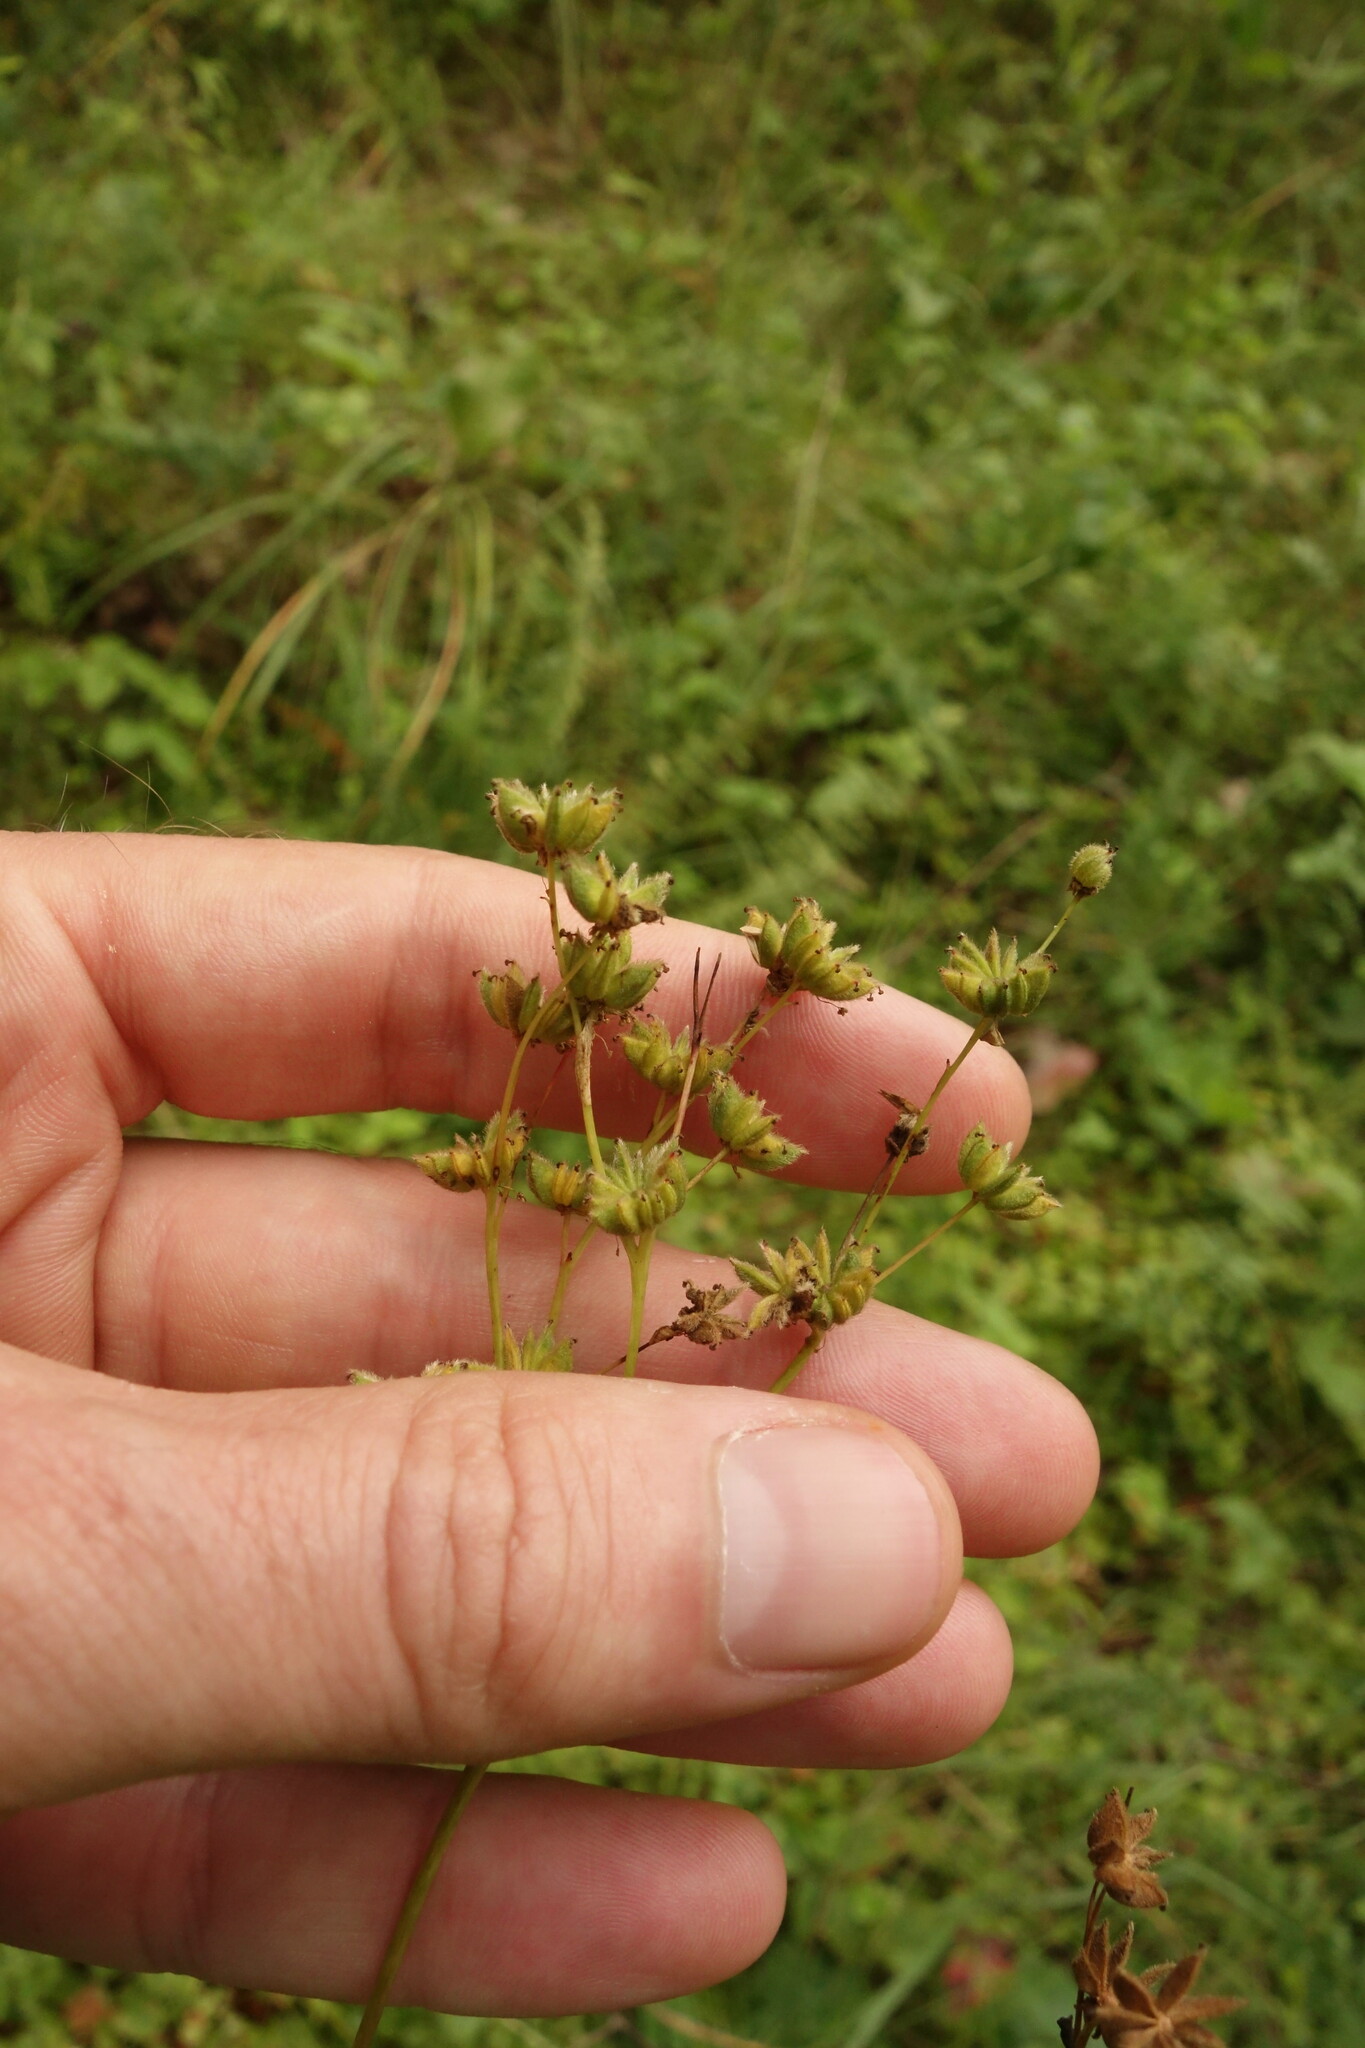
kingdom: Plantae
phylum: Tracheophyta
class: Magnoliopsida
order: Rosales
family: Rosaceae
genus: Filipendula
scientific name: Filipendula vulgaris
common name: Dropwort
